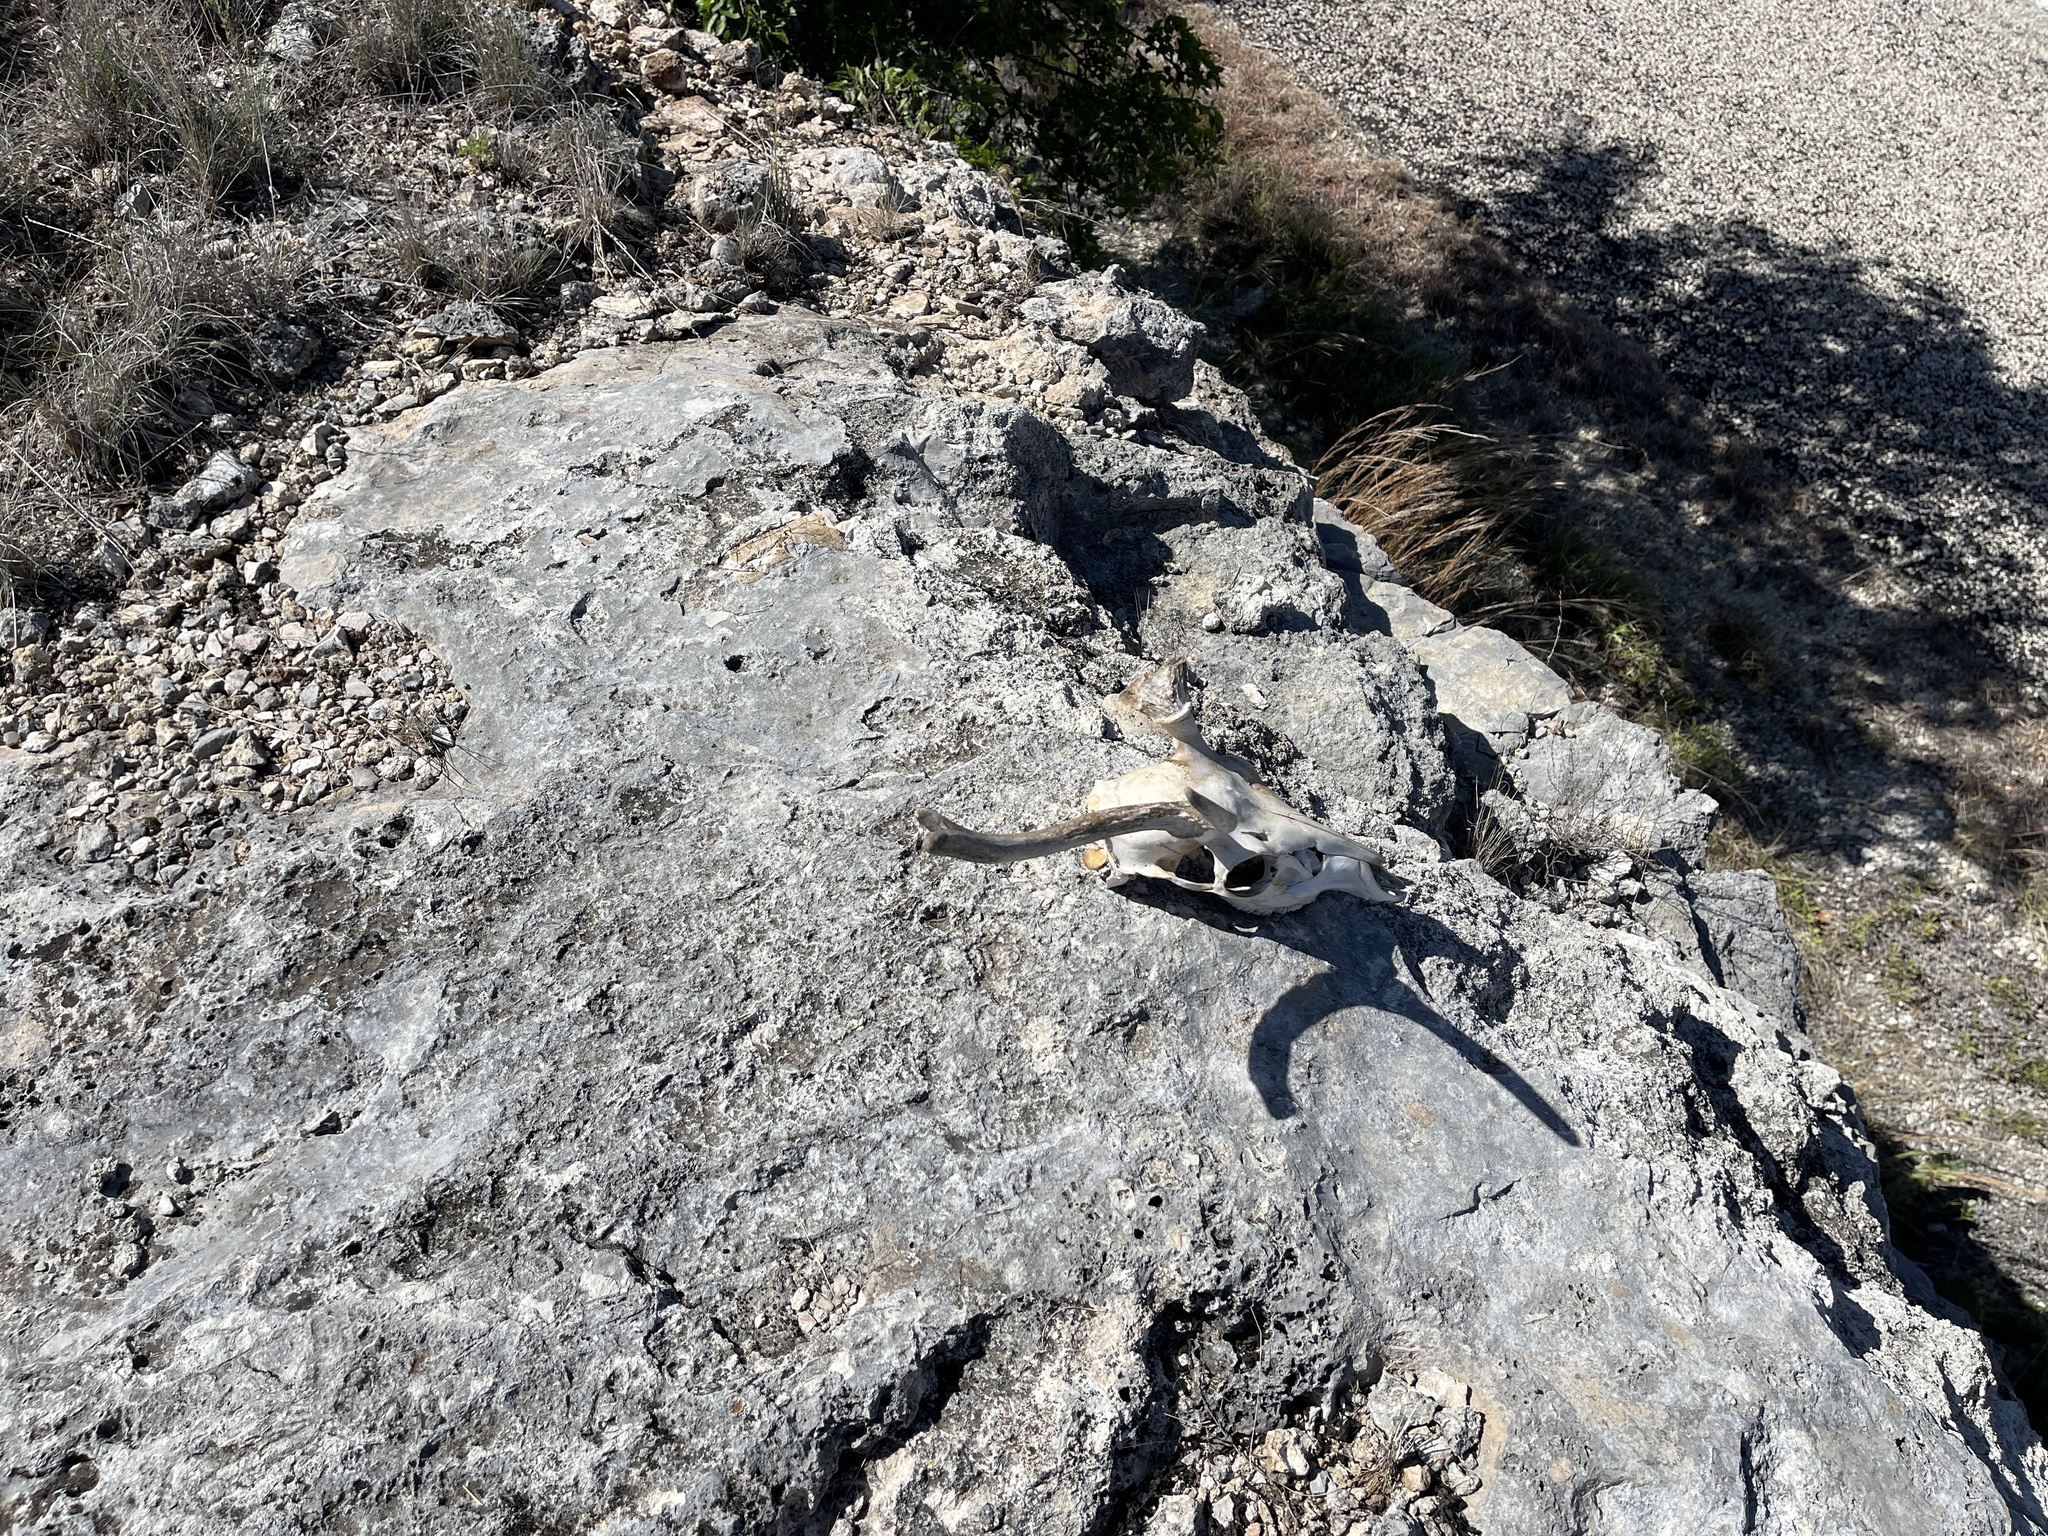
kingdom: Animalia
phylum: Chordata
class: Mammalia
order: Artiodactyla
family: Cervidae
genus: Axis
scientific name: Axis axis
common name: Chital
